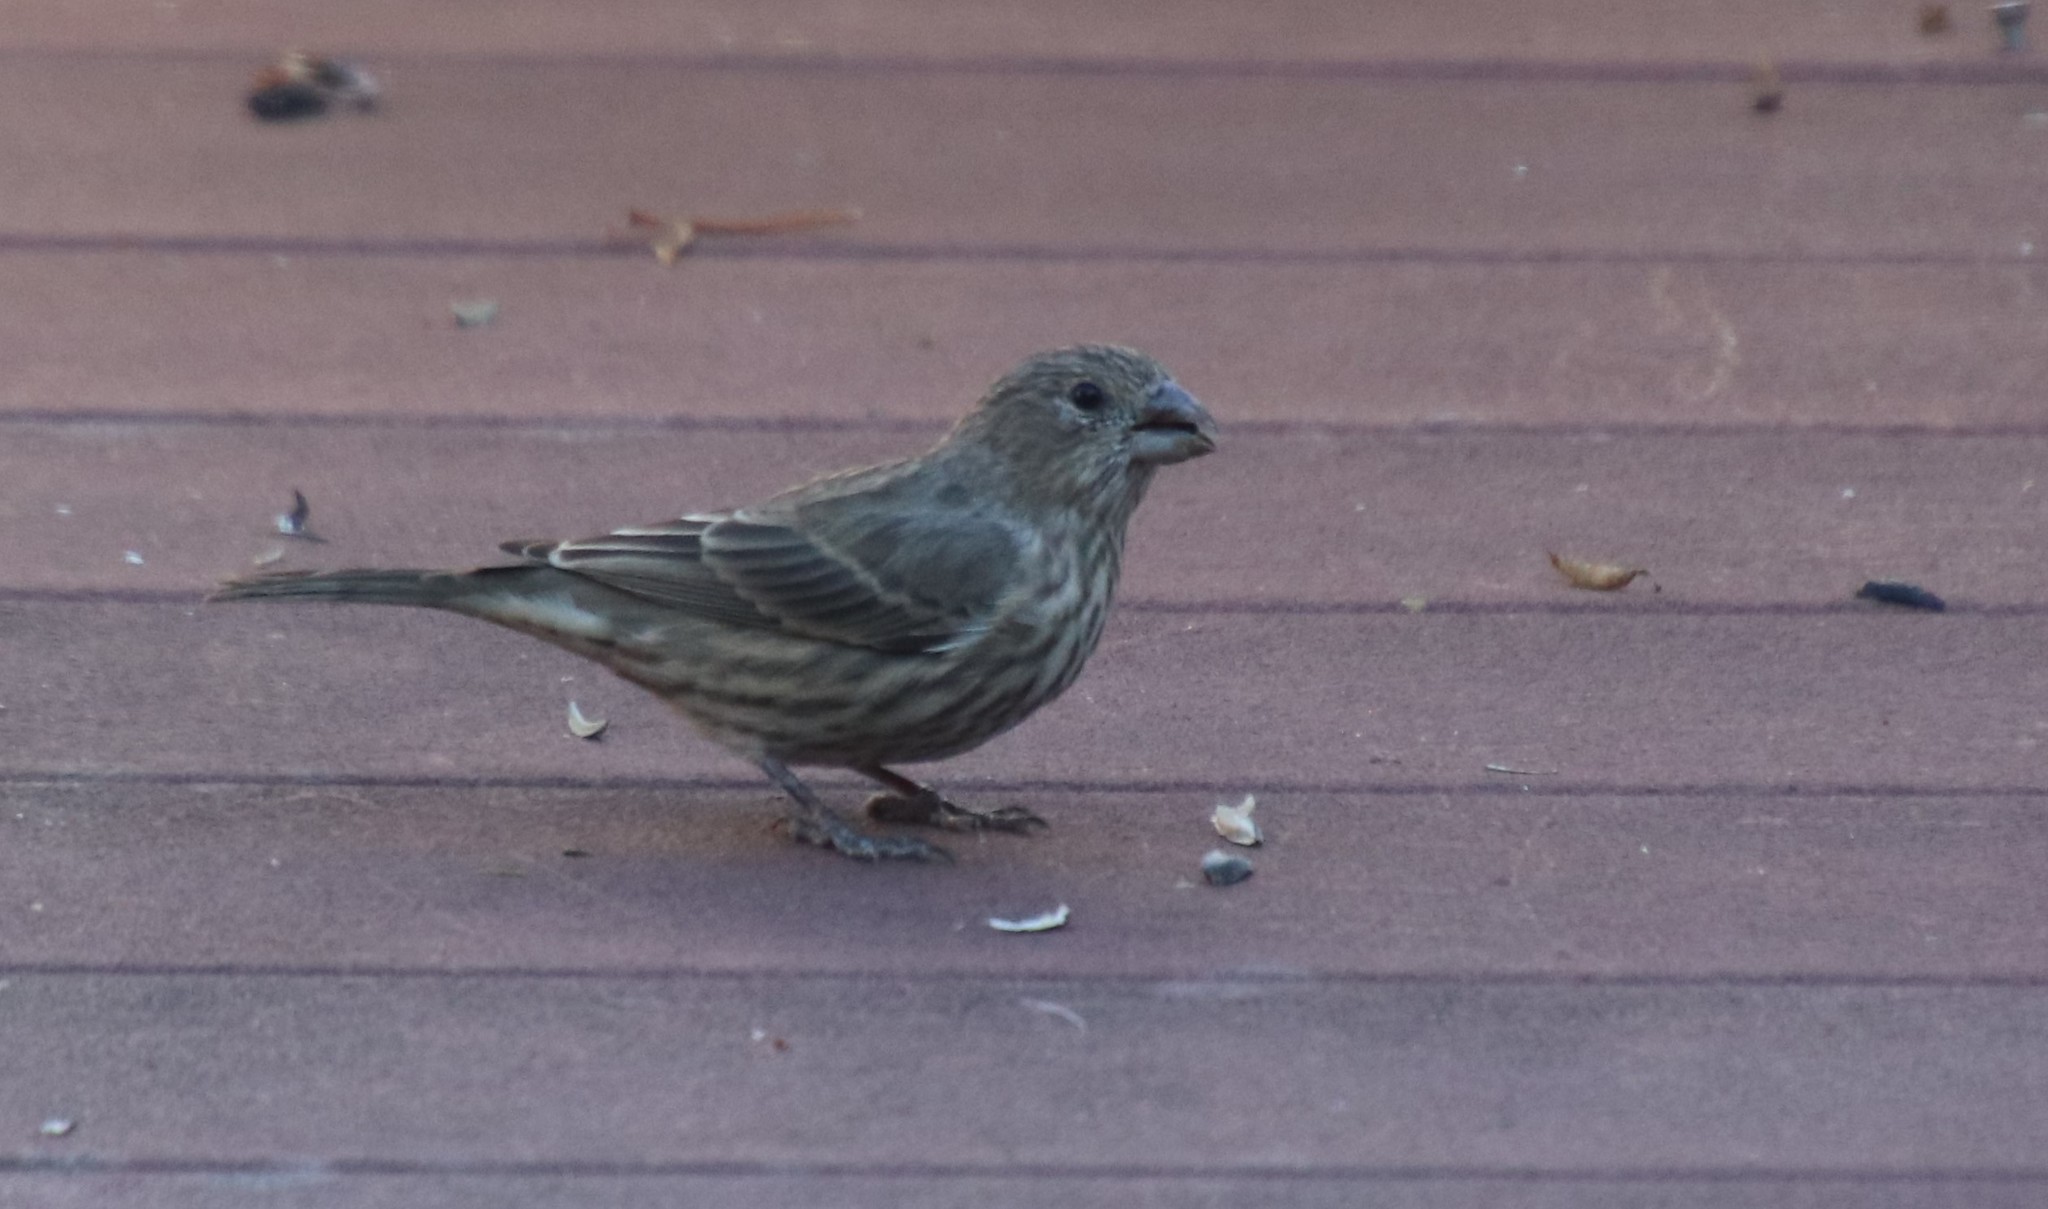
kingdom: Animalia
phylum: Chordata
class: Aves
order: Passeriformes
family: Fringillidae
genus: Haemorhous
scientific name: Haemorhous mexicanus
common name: House finch
